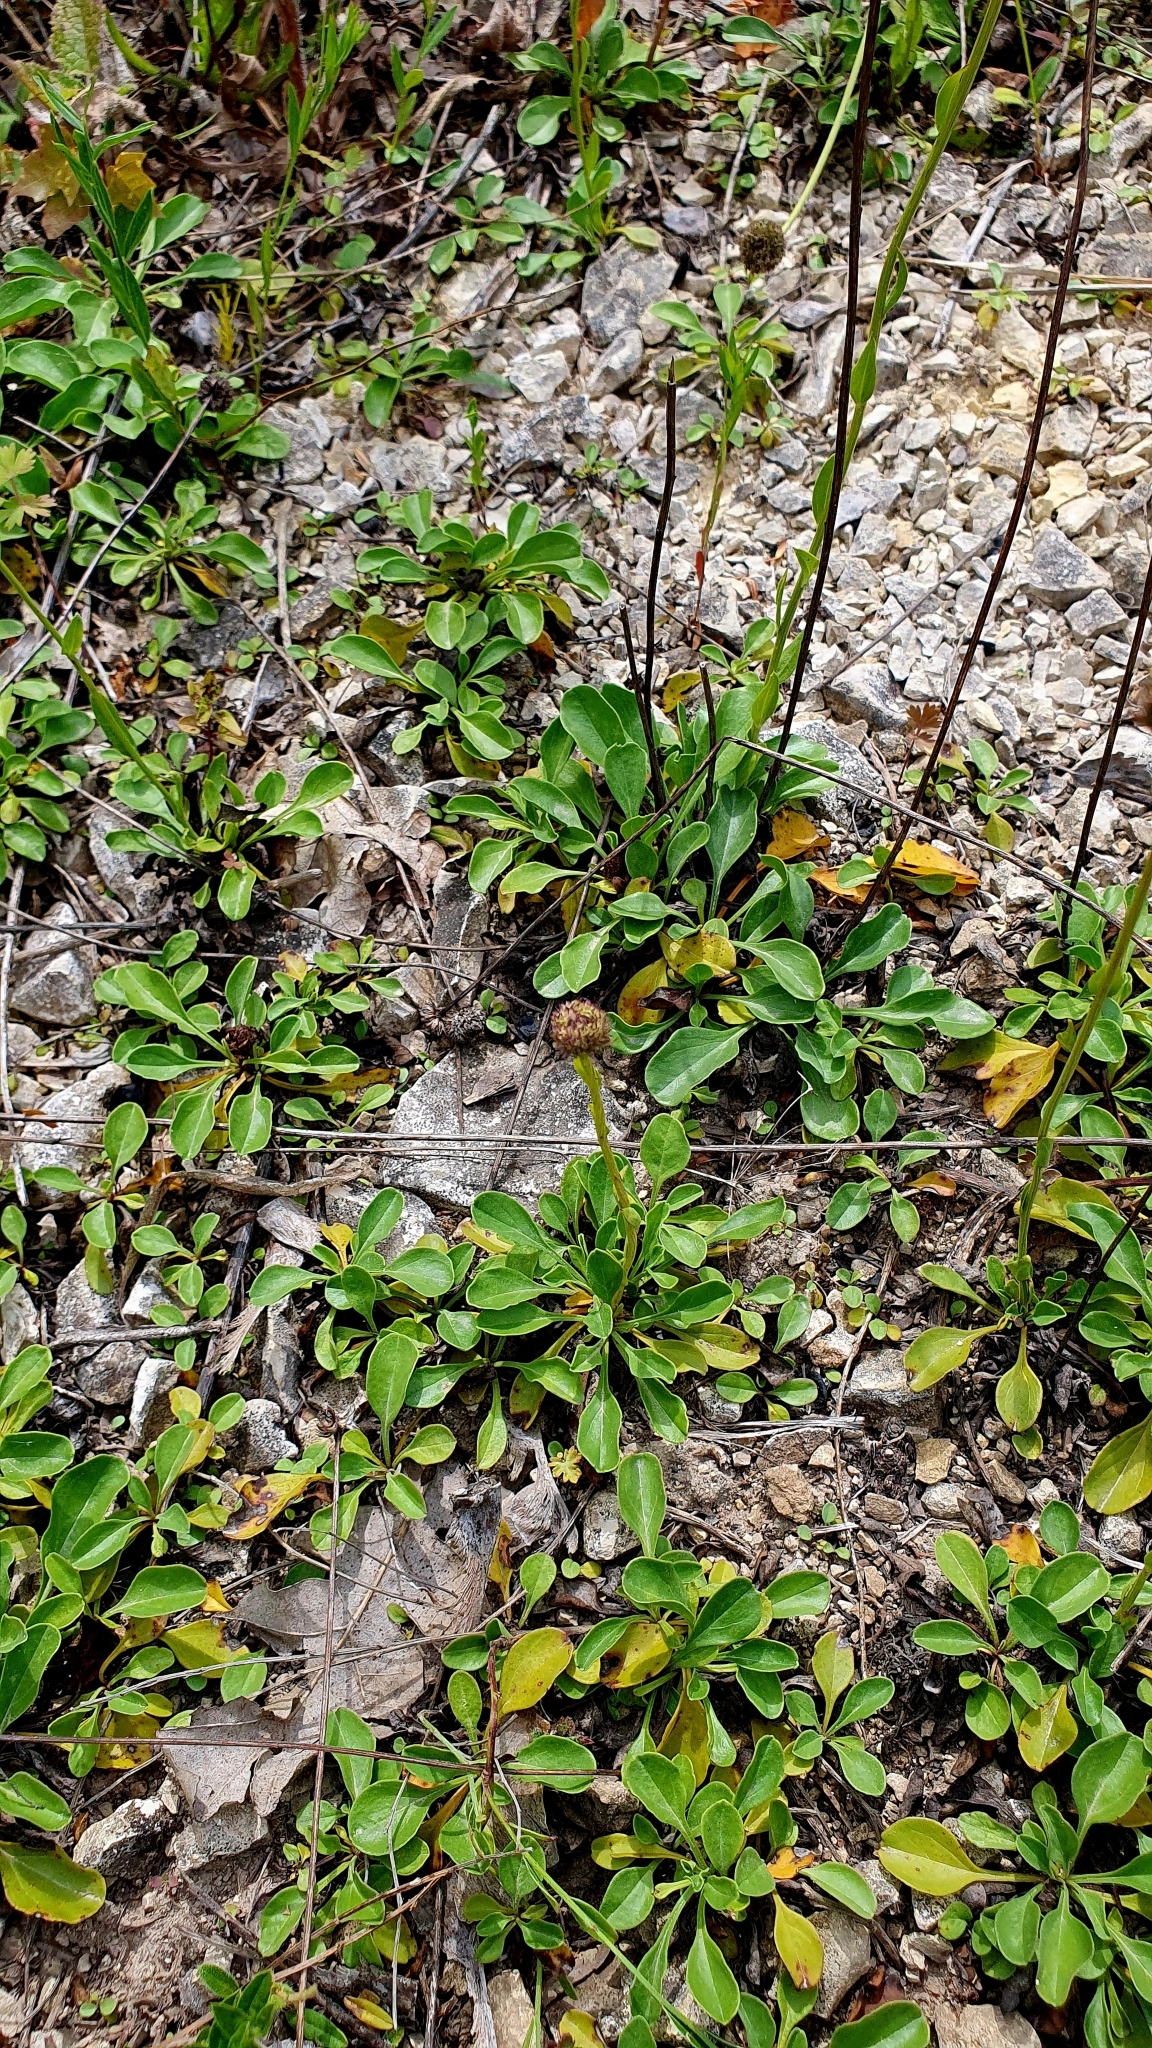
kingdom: Plantae
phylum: Tracheophyta
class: Magnoliopsida
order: Lamiales
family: Plantaginaceae
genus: Globularia
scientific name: Globularia bisnagarica
